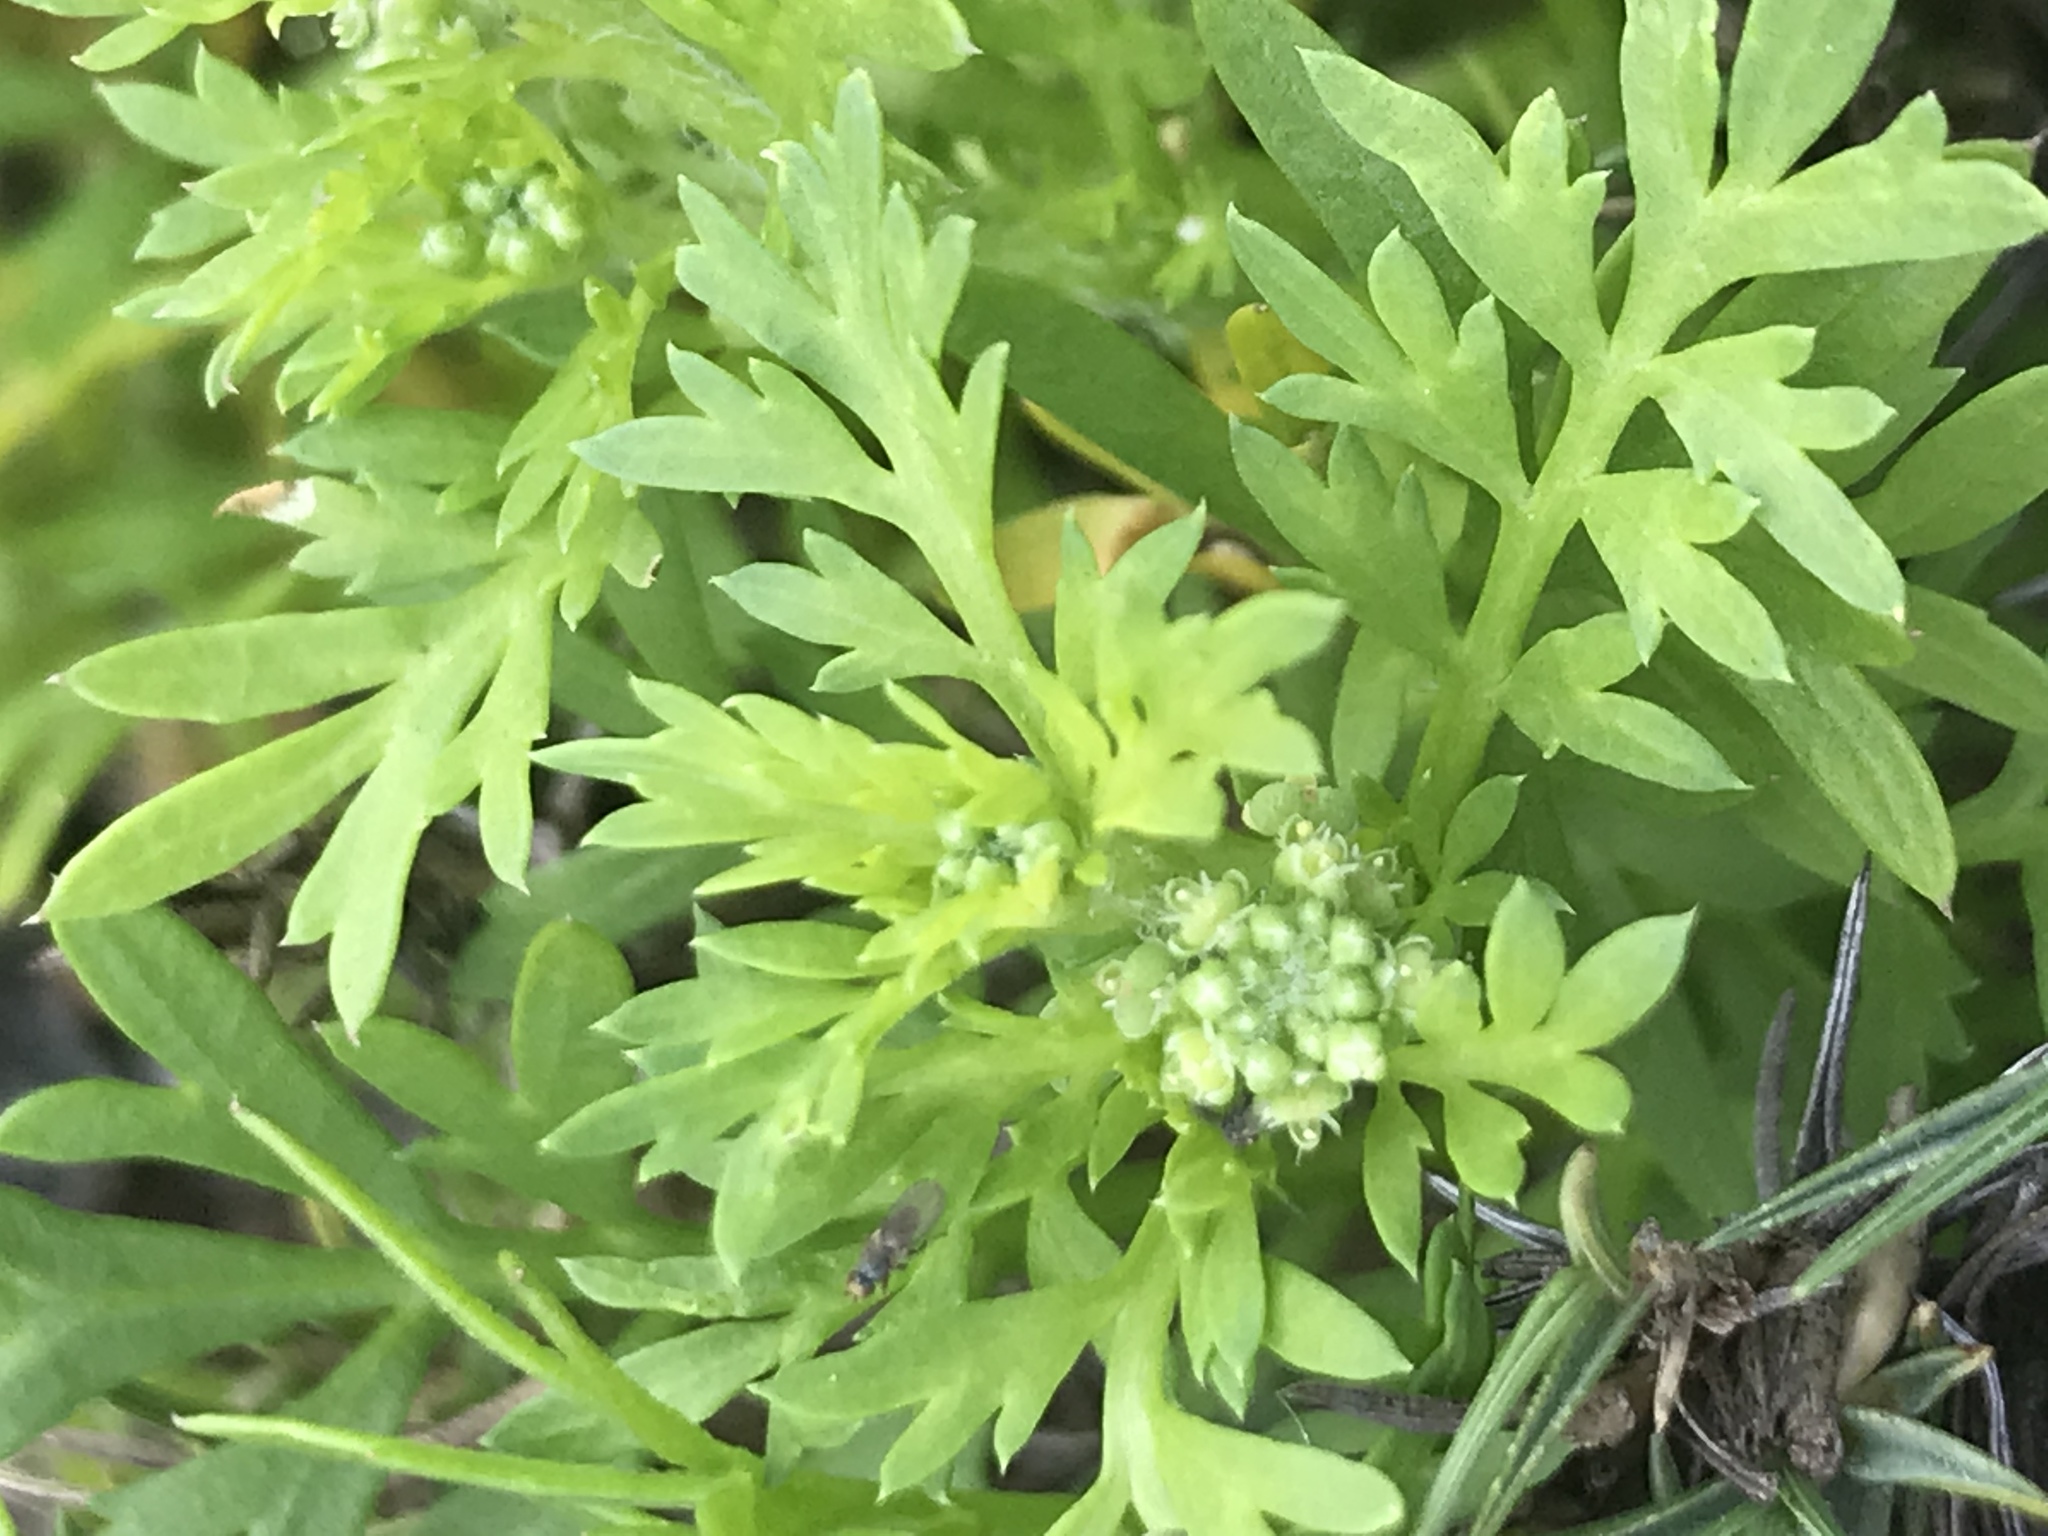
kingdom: Plantae
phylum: Tracheophyta
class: Magnoliopsida
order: Brassicales
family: Brassicaceae
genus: Lepidium
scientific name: Lepidium didymum
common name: Lesser swinecress
